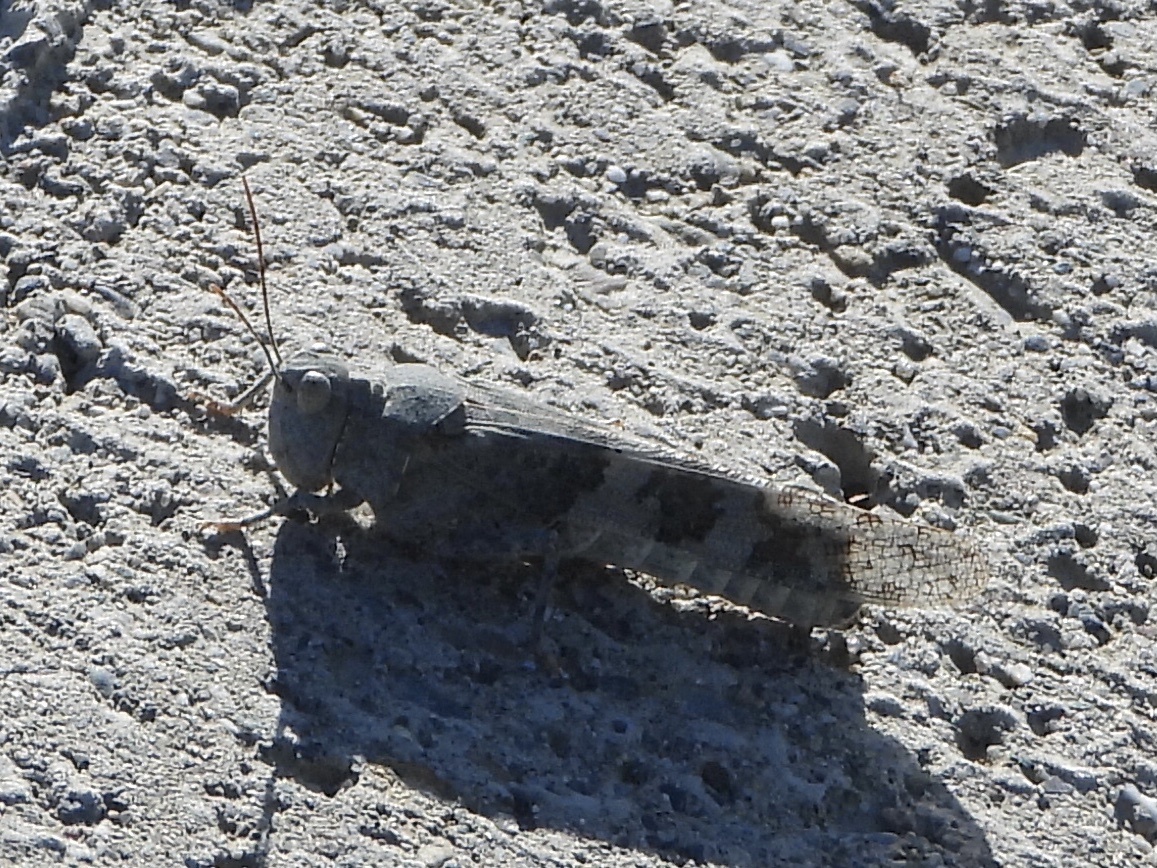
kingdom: Animalia
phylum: Arthropoda
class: Insecta
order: Orthoptera
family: Acrididae
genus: Trimerotropis
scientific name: Trimerotropis pallidipennis
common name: Pallid-winged grasshopper
